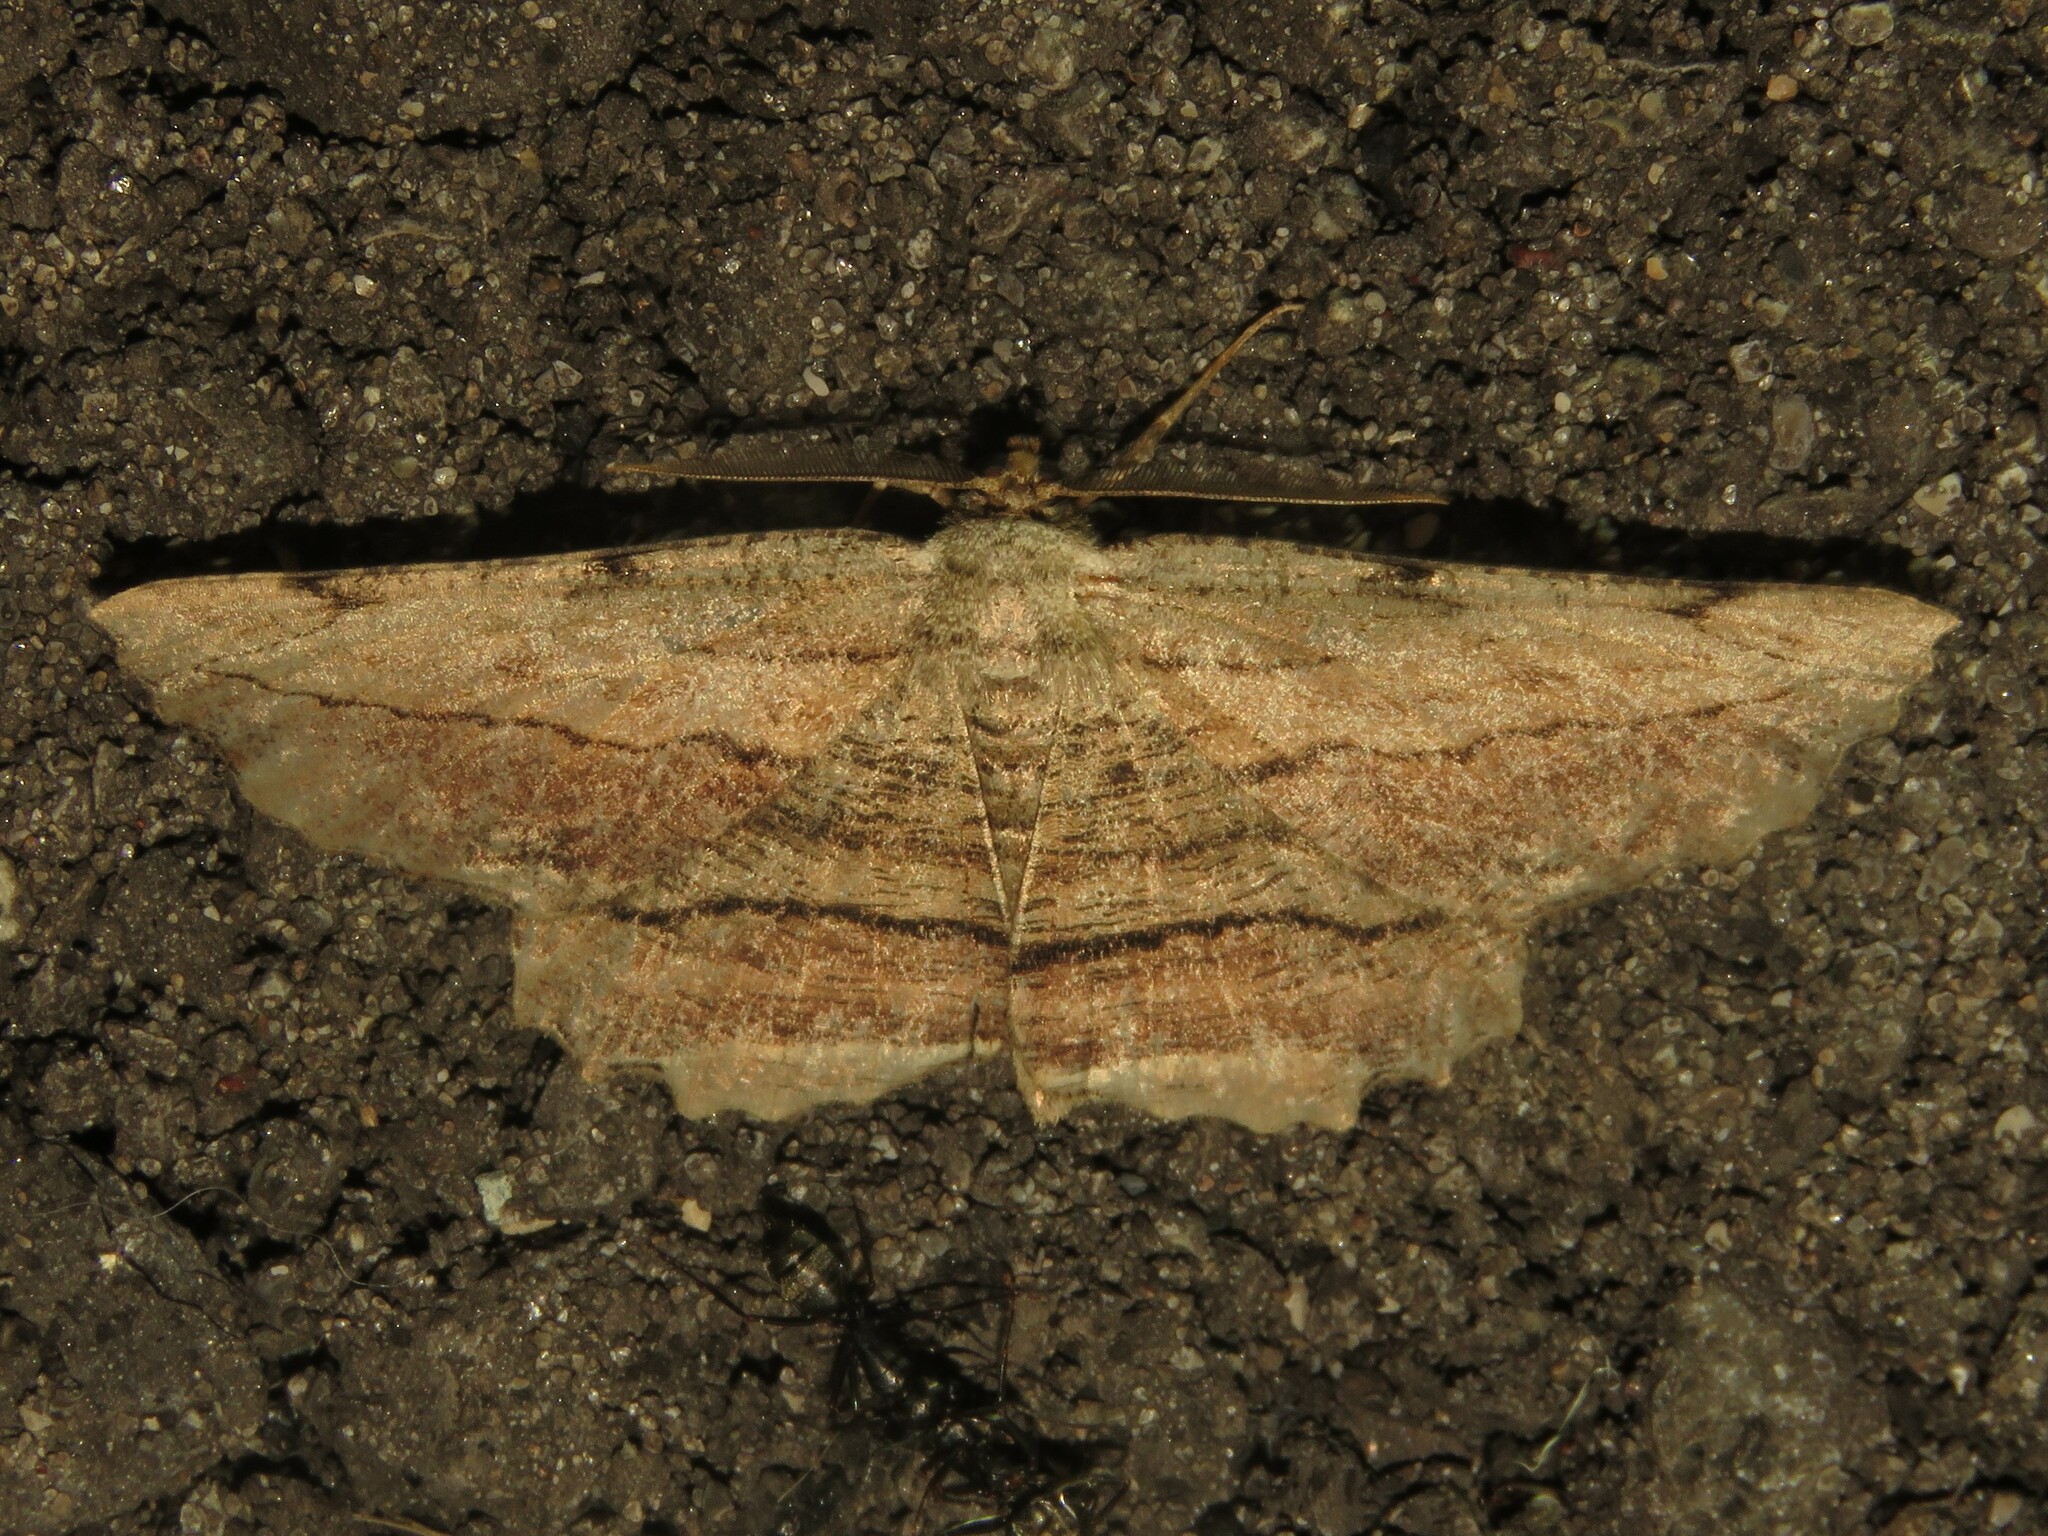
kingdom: Animalia
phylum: Arthropoda
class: Insecta
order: Lepidoptera
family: Geometridae
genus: Lytrosis
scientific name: Lytrosis unitaria
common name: Common lytrosis
